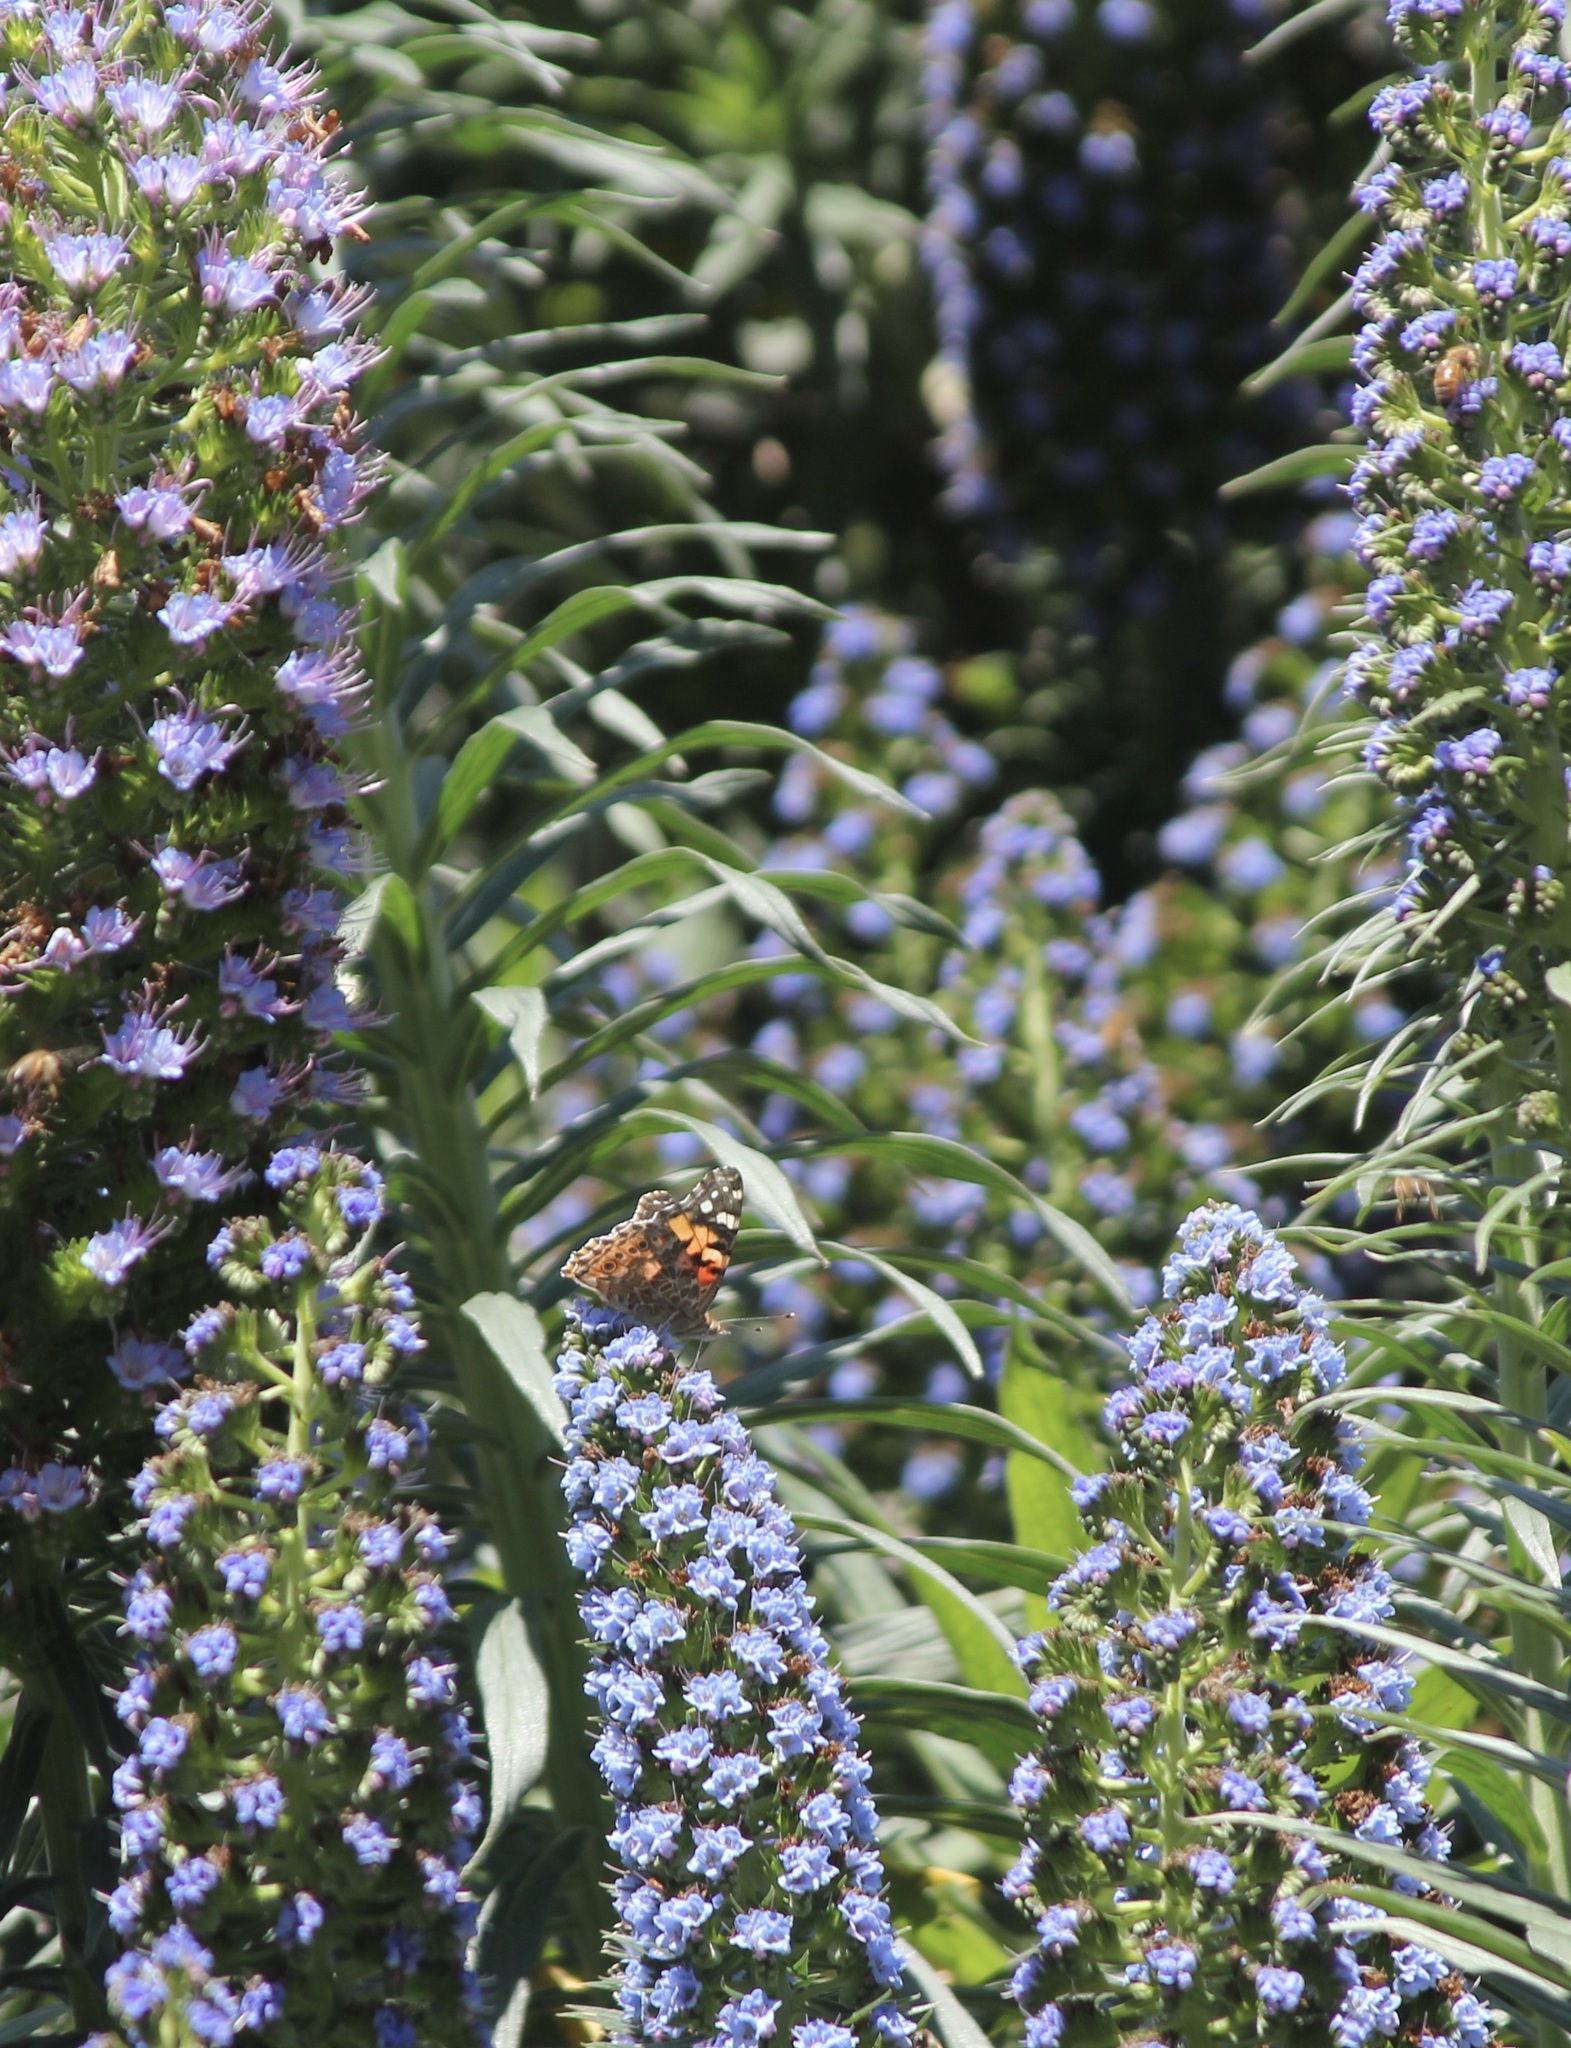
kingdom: Animalia
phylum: Arthropoda
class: Insecta
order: Lepidoptera
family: Nymphalidae
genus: Vanessa
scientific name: Vanessa cardui
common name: Painted lady
